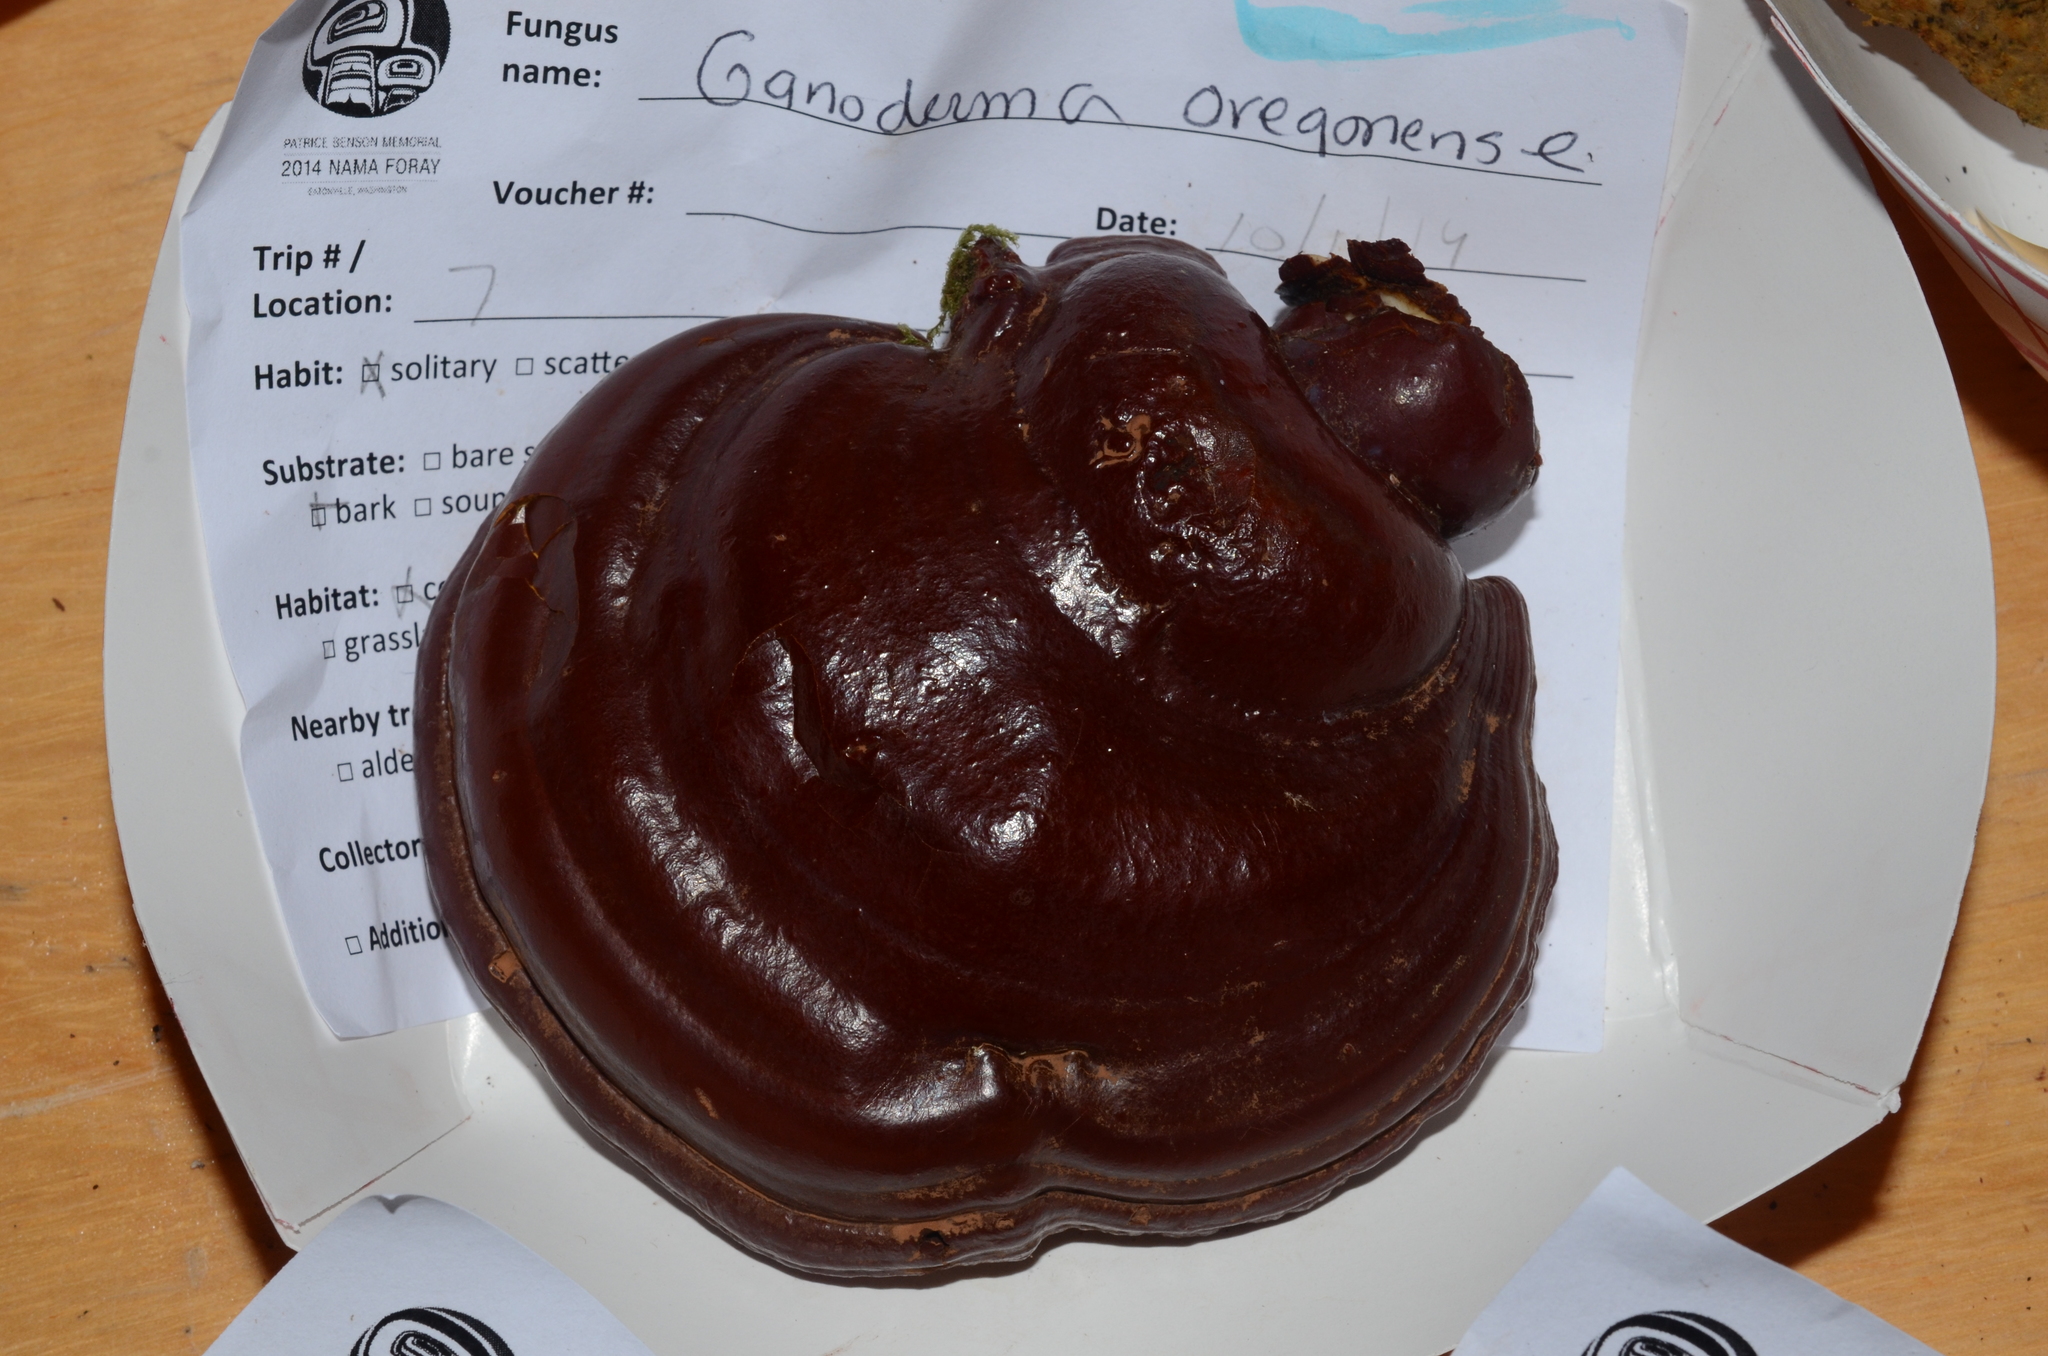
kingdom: Fungi
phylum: Basidiomycota
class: Agaricomycetes
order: Polyporales
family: Polyporaceae
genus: Ganoderma
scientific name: Ganoderma oregonense
